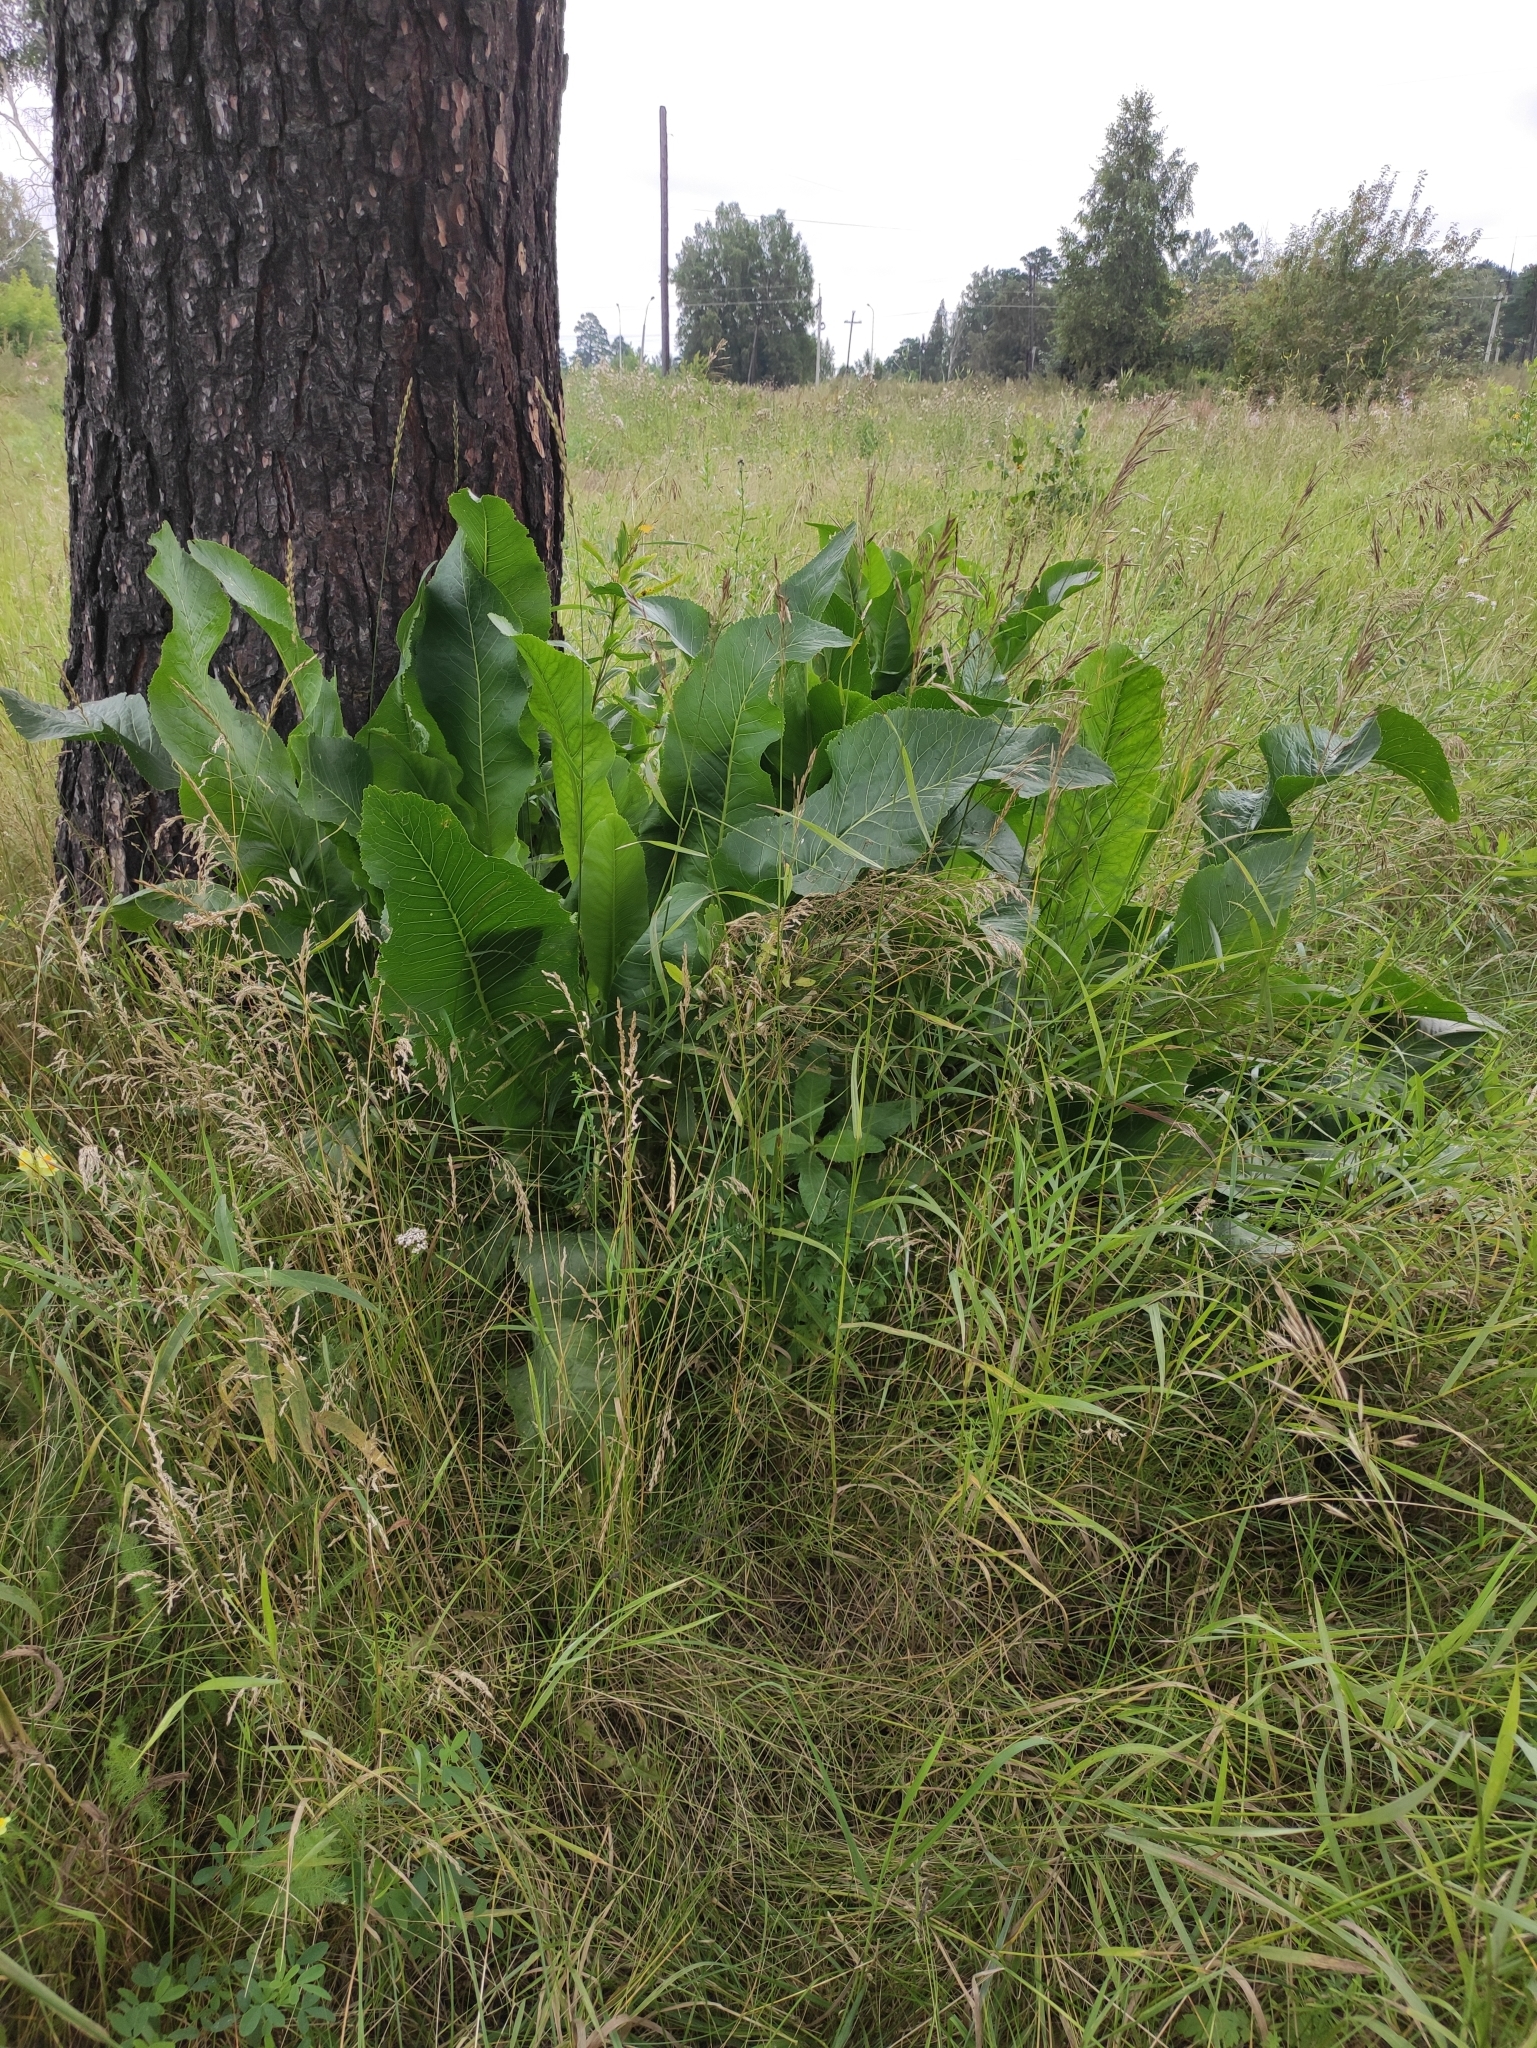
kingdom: Plantae
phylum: Tracheophyta
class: Magnoliopsida
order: Brassicales
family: Brassicaceae
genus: Armoracia
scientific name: Armoracia rusticana
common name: Horseradish
